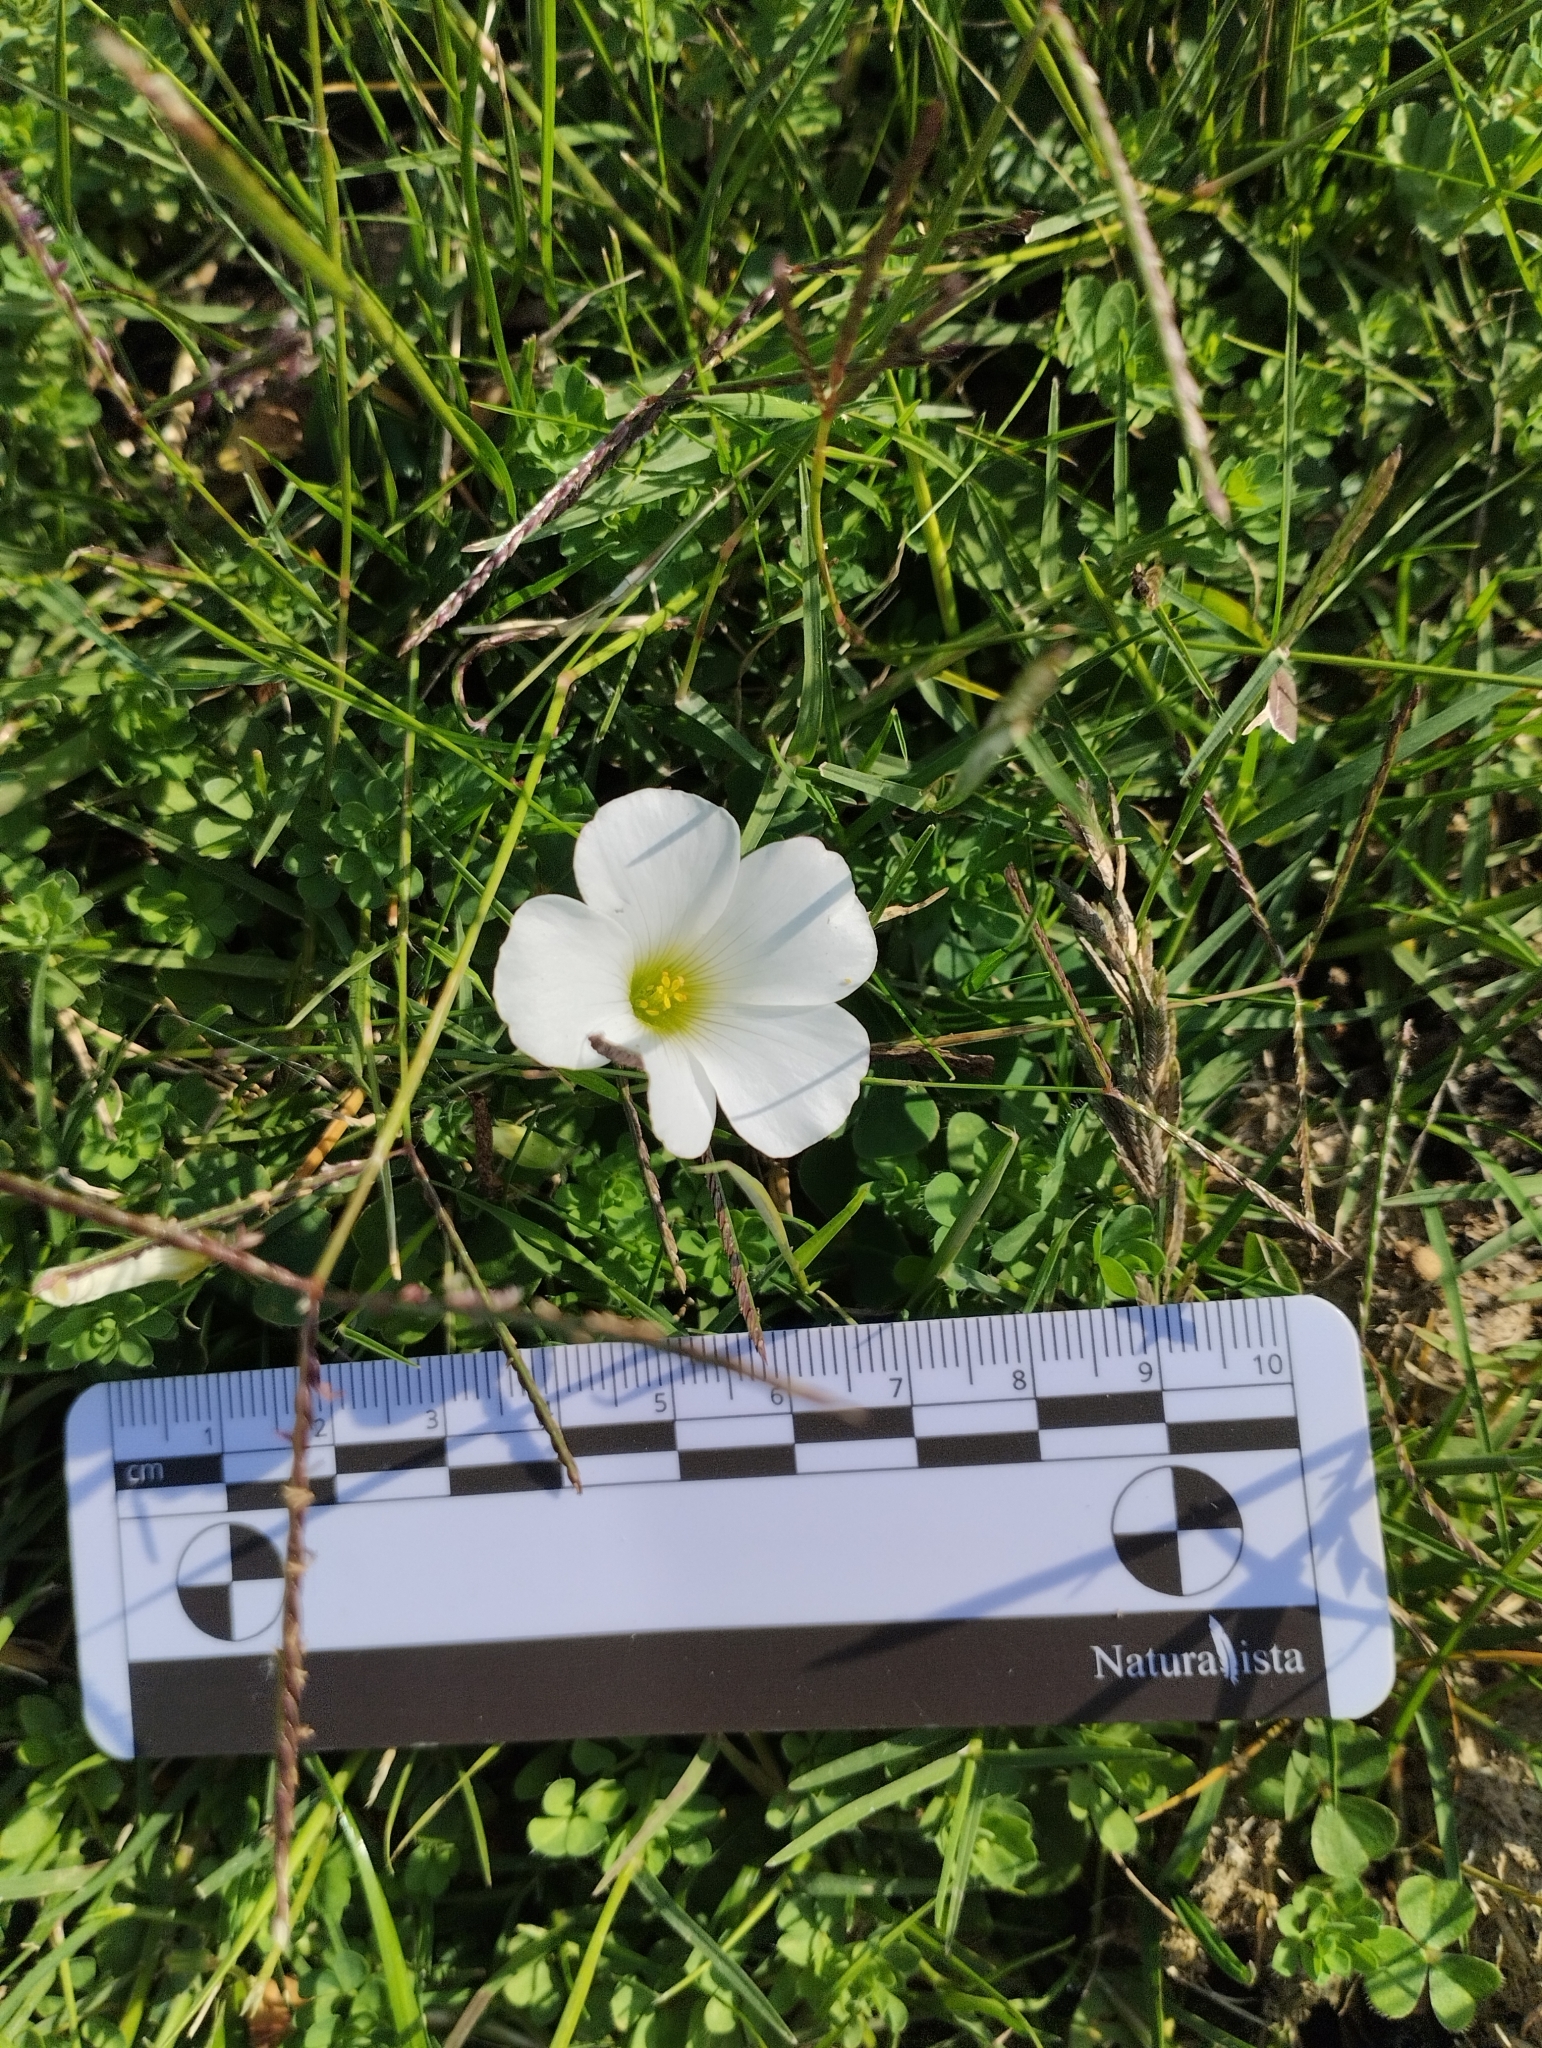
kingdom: Plantae
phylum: Tracheophyta
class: Magnoliopsida
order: Oxalidales
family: Oxalidaceae
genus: Oxalis
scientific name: Oxalis sellowiana
